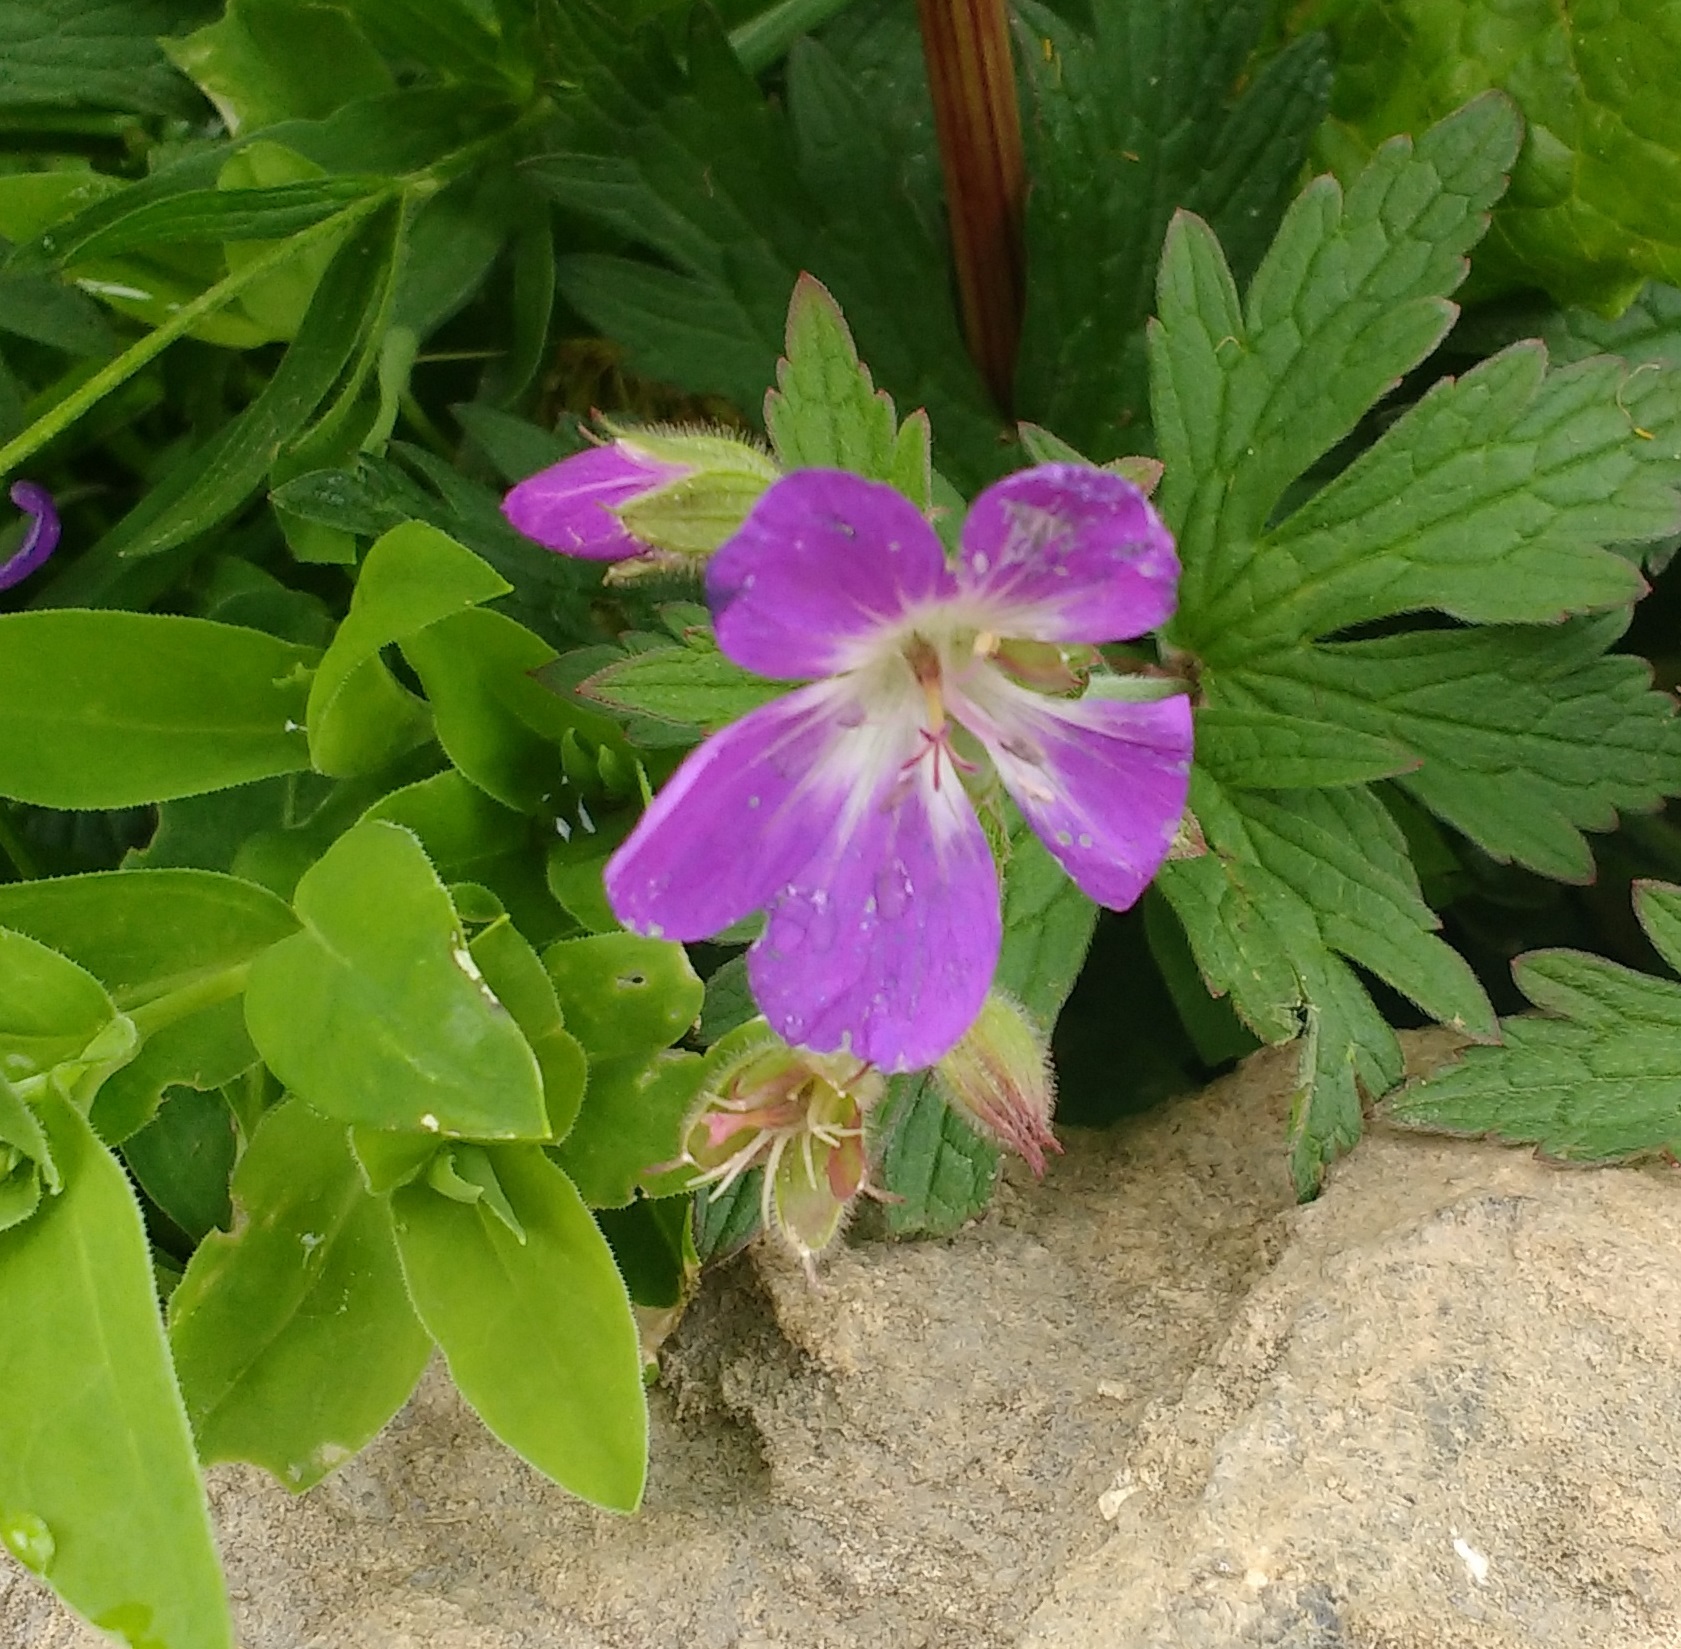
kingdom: Plantae
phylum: Tracheophyta
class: Magnoliopsida
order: Geraniales
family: Geraniaceae
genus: Geranium
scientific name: Geranium sylvaticum
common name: Wood crane's-bill
